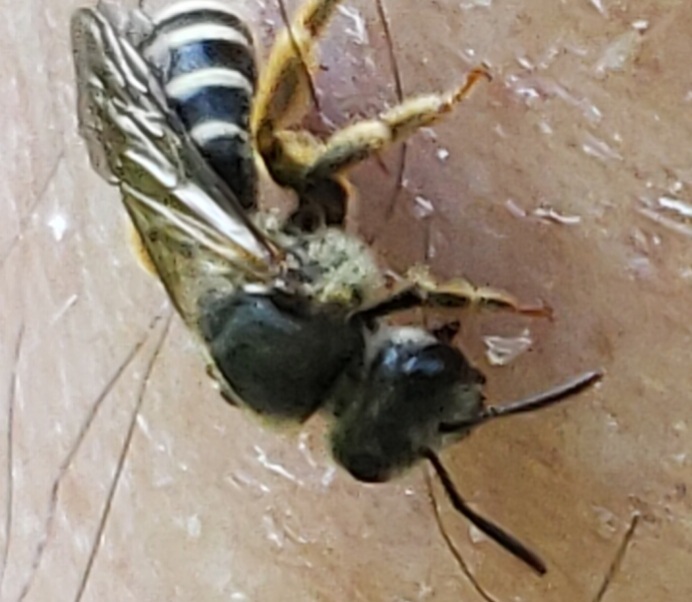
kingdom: Animalia
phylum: Arthropoda
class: Insecta
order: Hymenoptera
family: Halictidae
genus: Halictus
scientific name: Halictus rubicundus
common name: Orange-legged furrow bee
